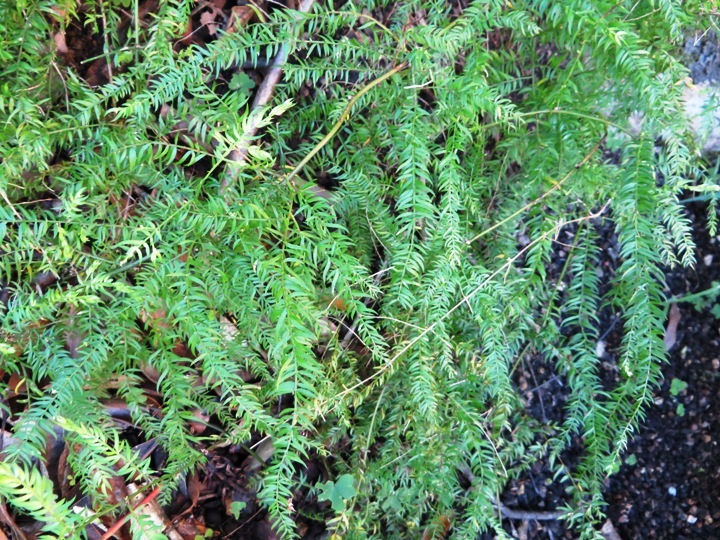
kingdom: Plantae
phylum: Tracheophyta
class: Liliopsida
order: Asparagales
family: Asparagaceae
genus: Asparagus
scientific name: Asparagus scandens
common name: Asparagus-fern
